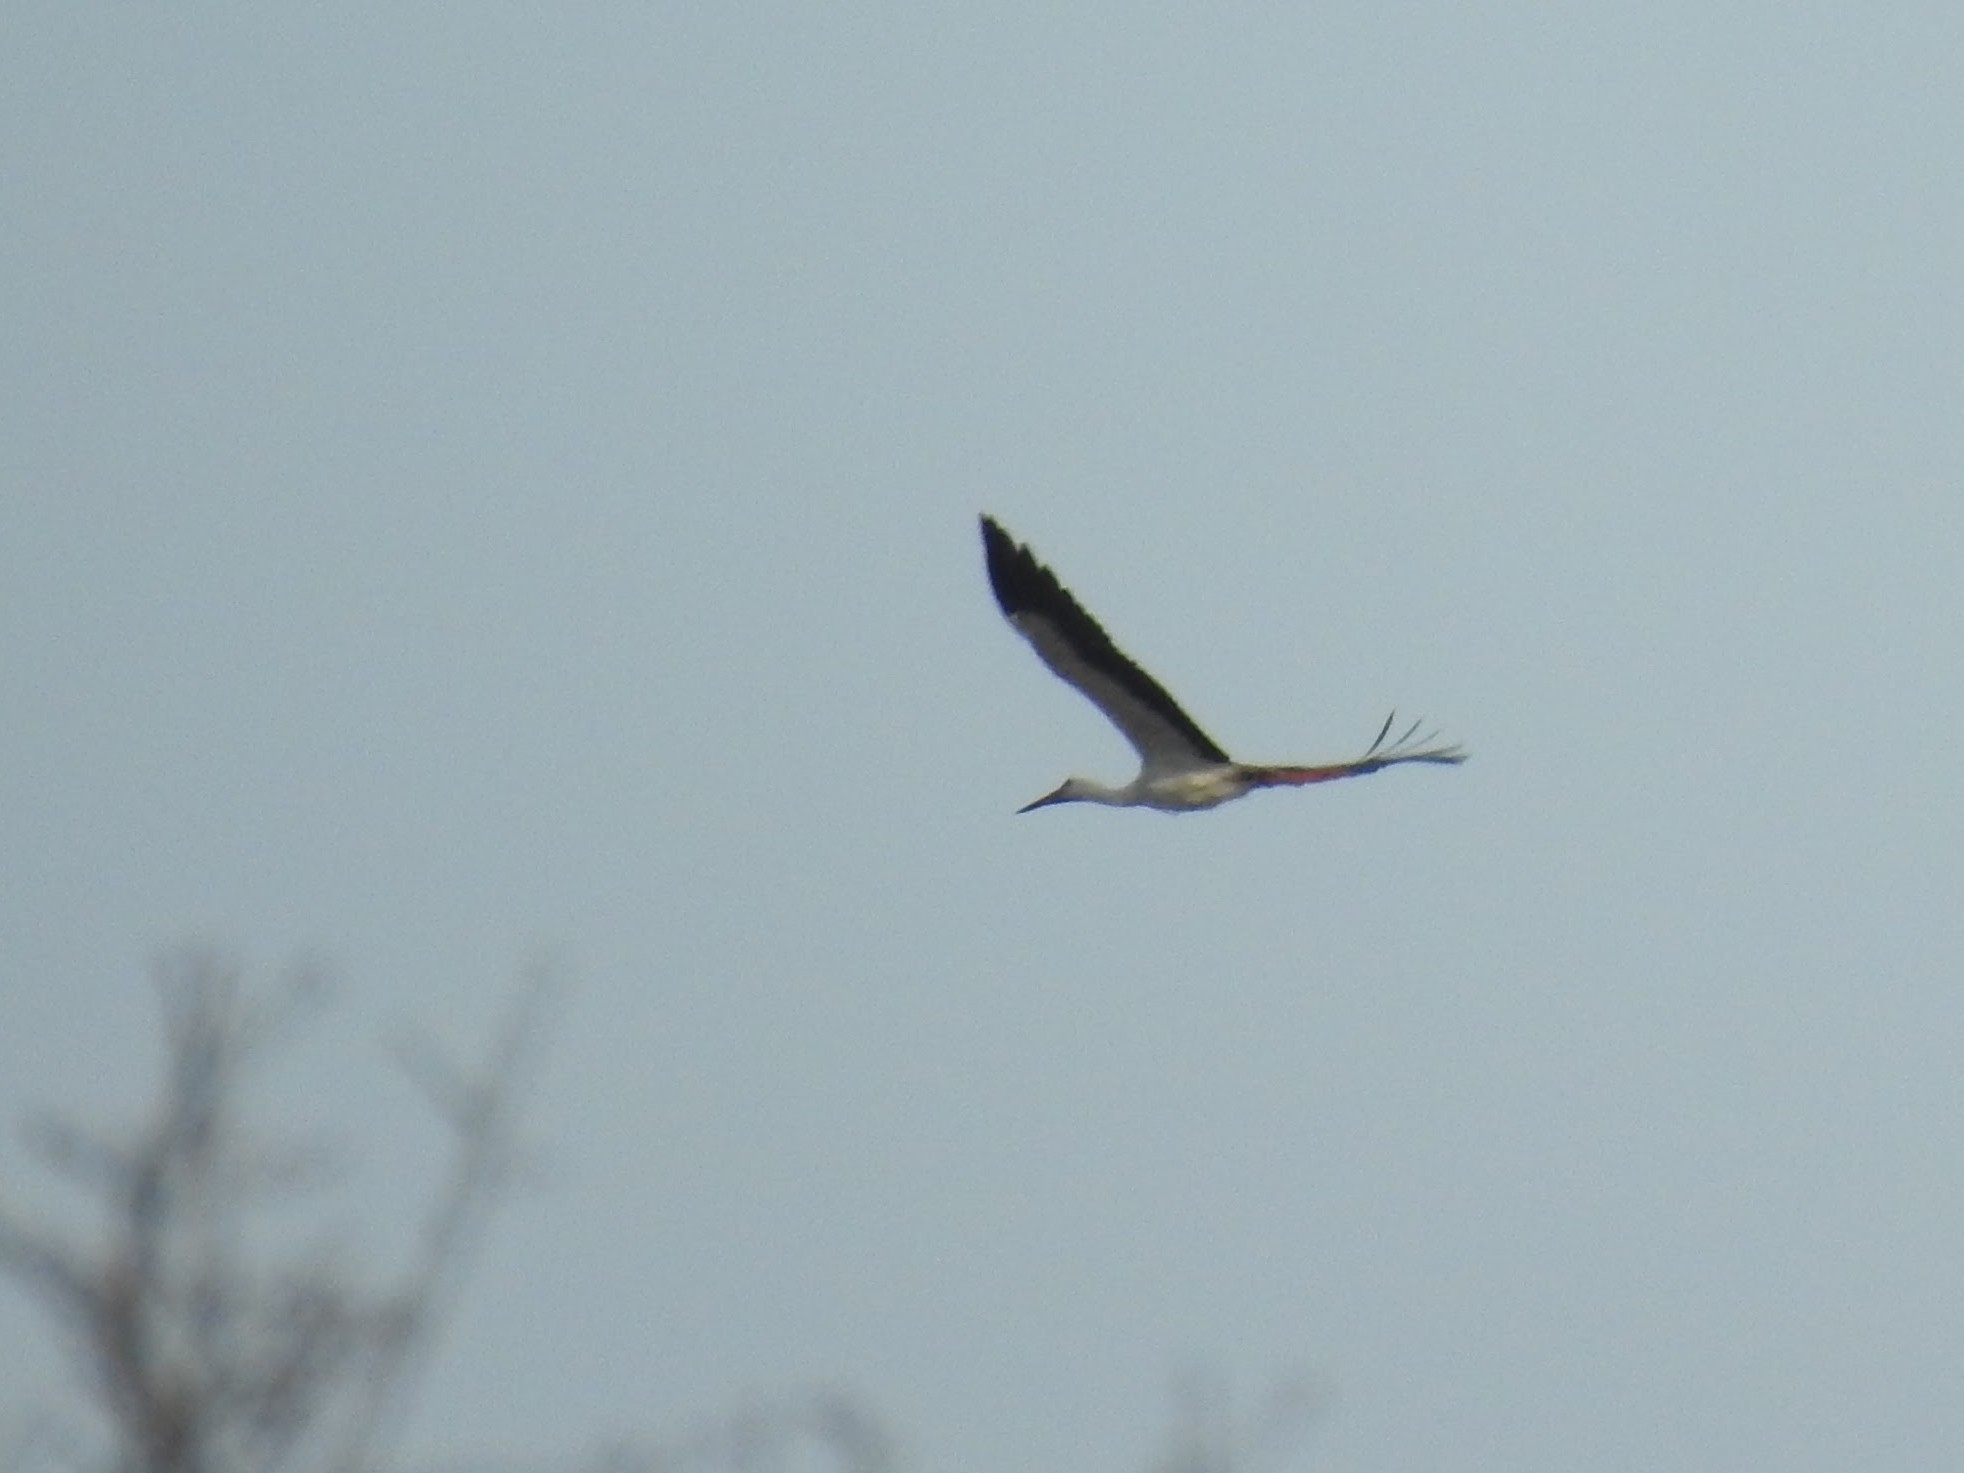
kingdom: Animalia
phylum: Chordata
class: Aves
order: Ciconiiformes
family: Ciconiidae
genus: Ciconia
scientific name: Ciconia ciconia
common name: White stork
